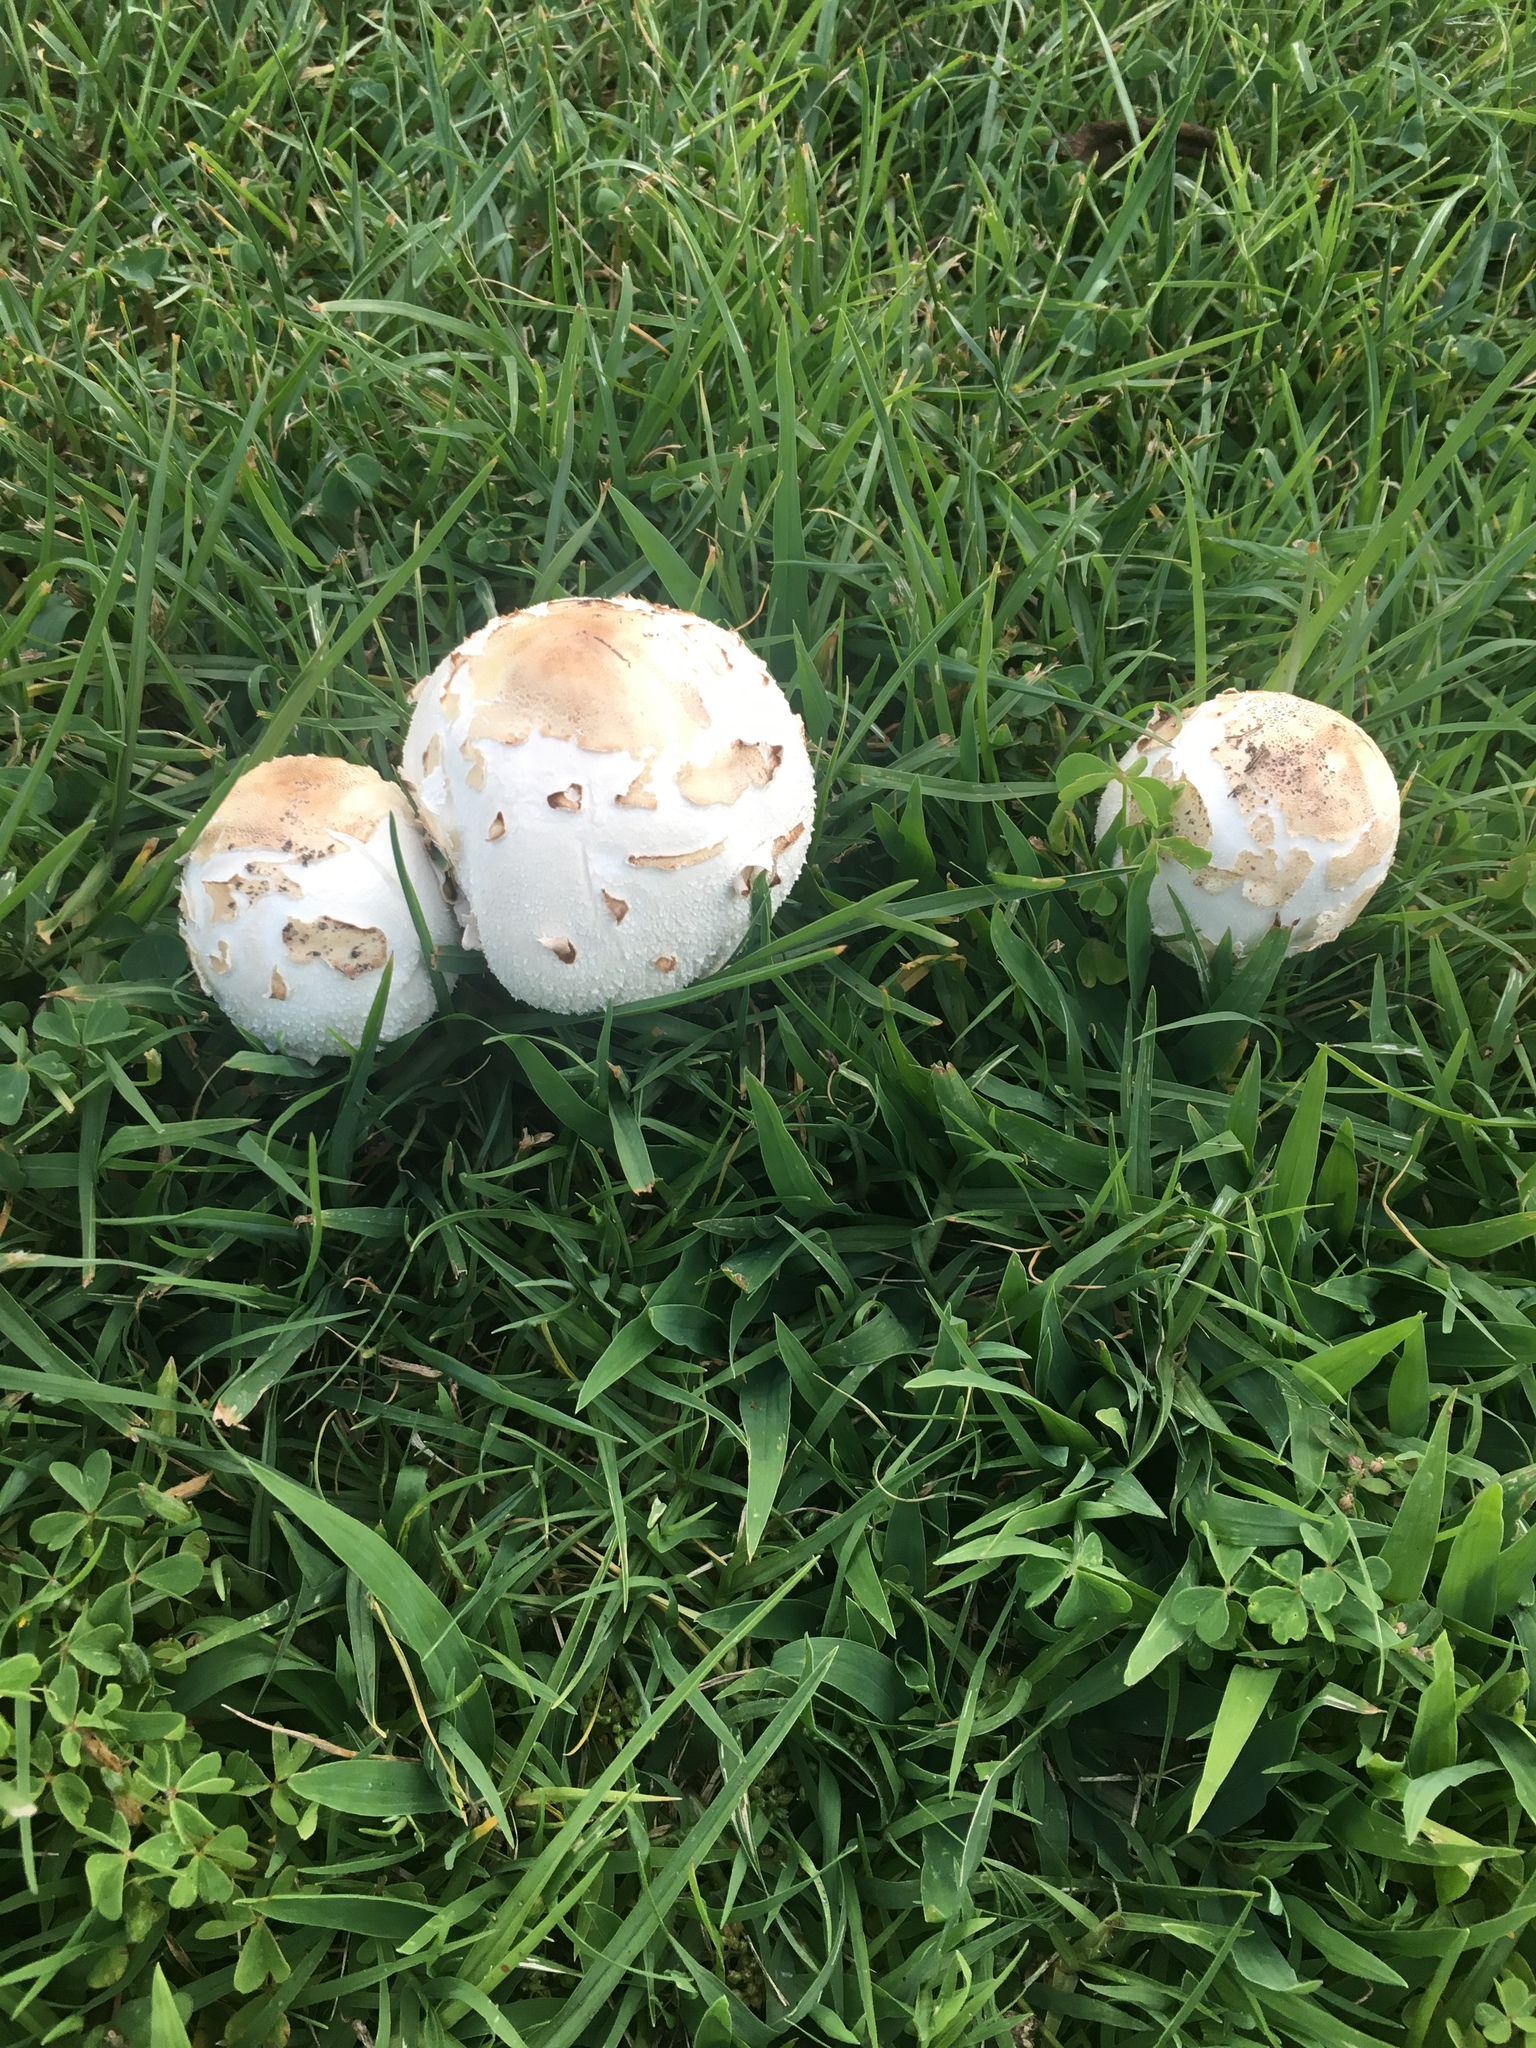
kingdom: Fungi
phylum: Basidiomycota
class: Agaricomycetes
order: Agaricales
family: Agaricaceae
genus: Chlorophyllum
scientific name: Chlorophyllum molybdites
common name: False parasol
